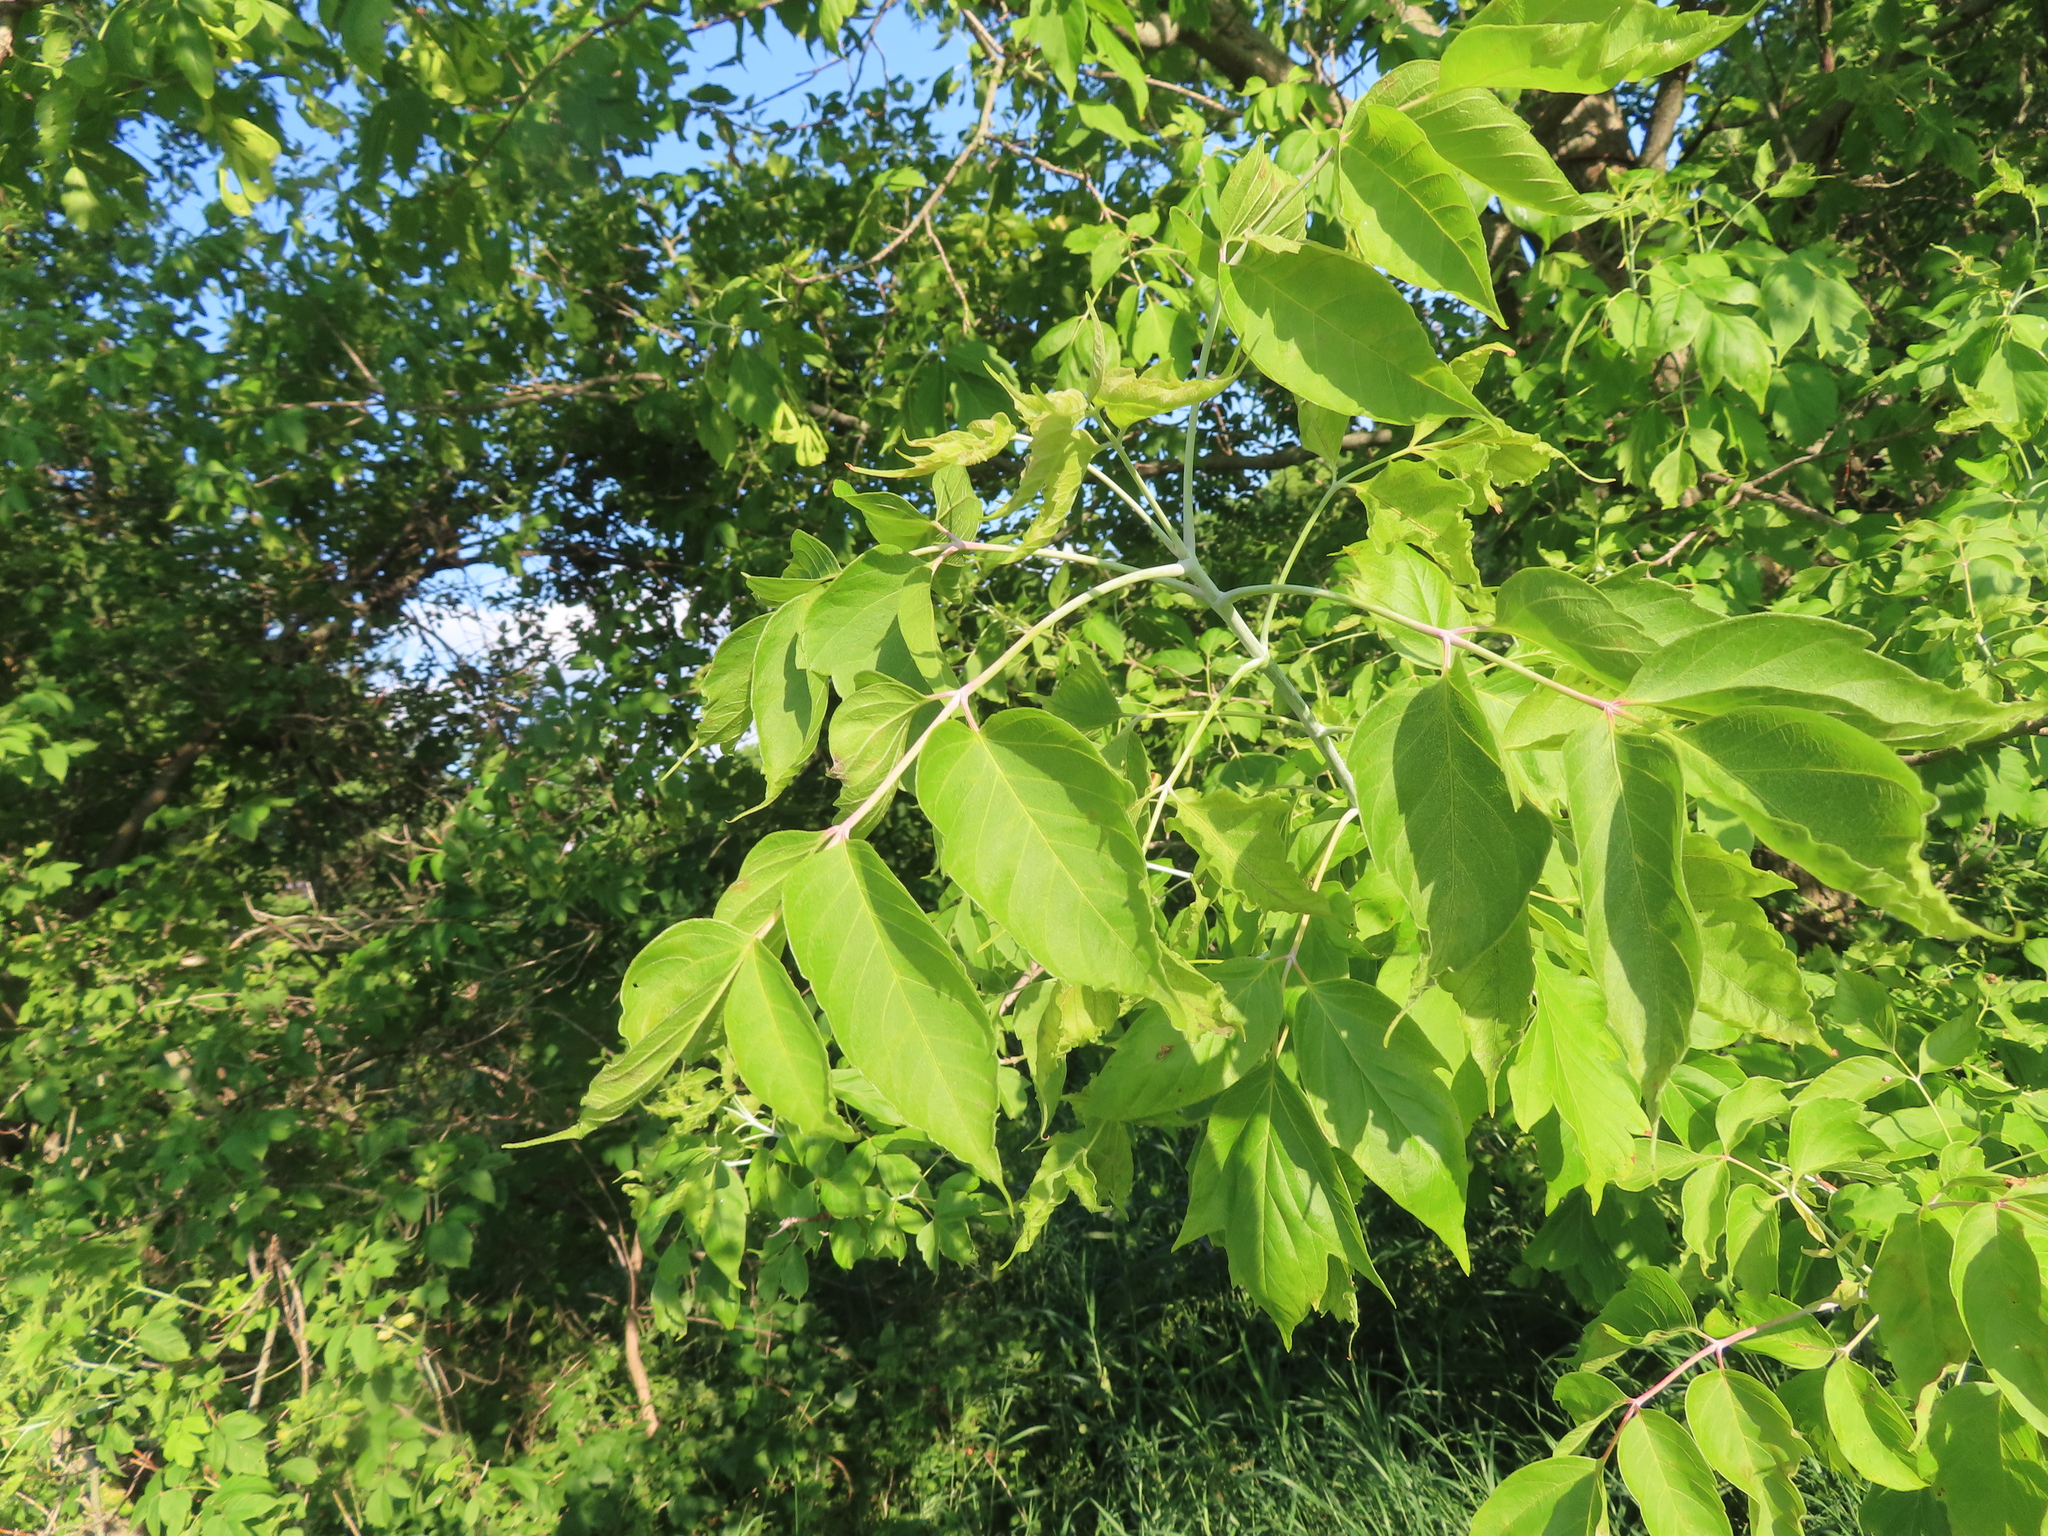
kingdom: Plantae
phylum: Tracheophyta
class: Magnoliopsida
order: Sapindales
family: Sapindaceae
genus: Acer
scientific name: Acer negundo
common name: Ashleaf maple
